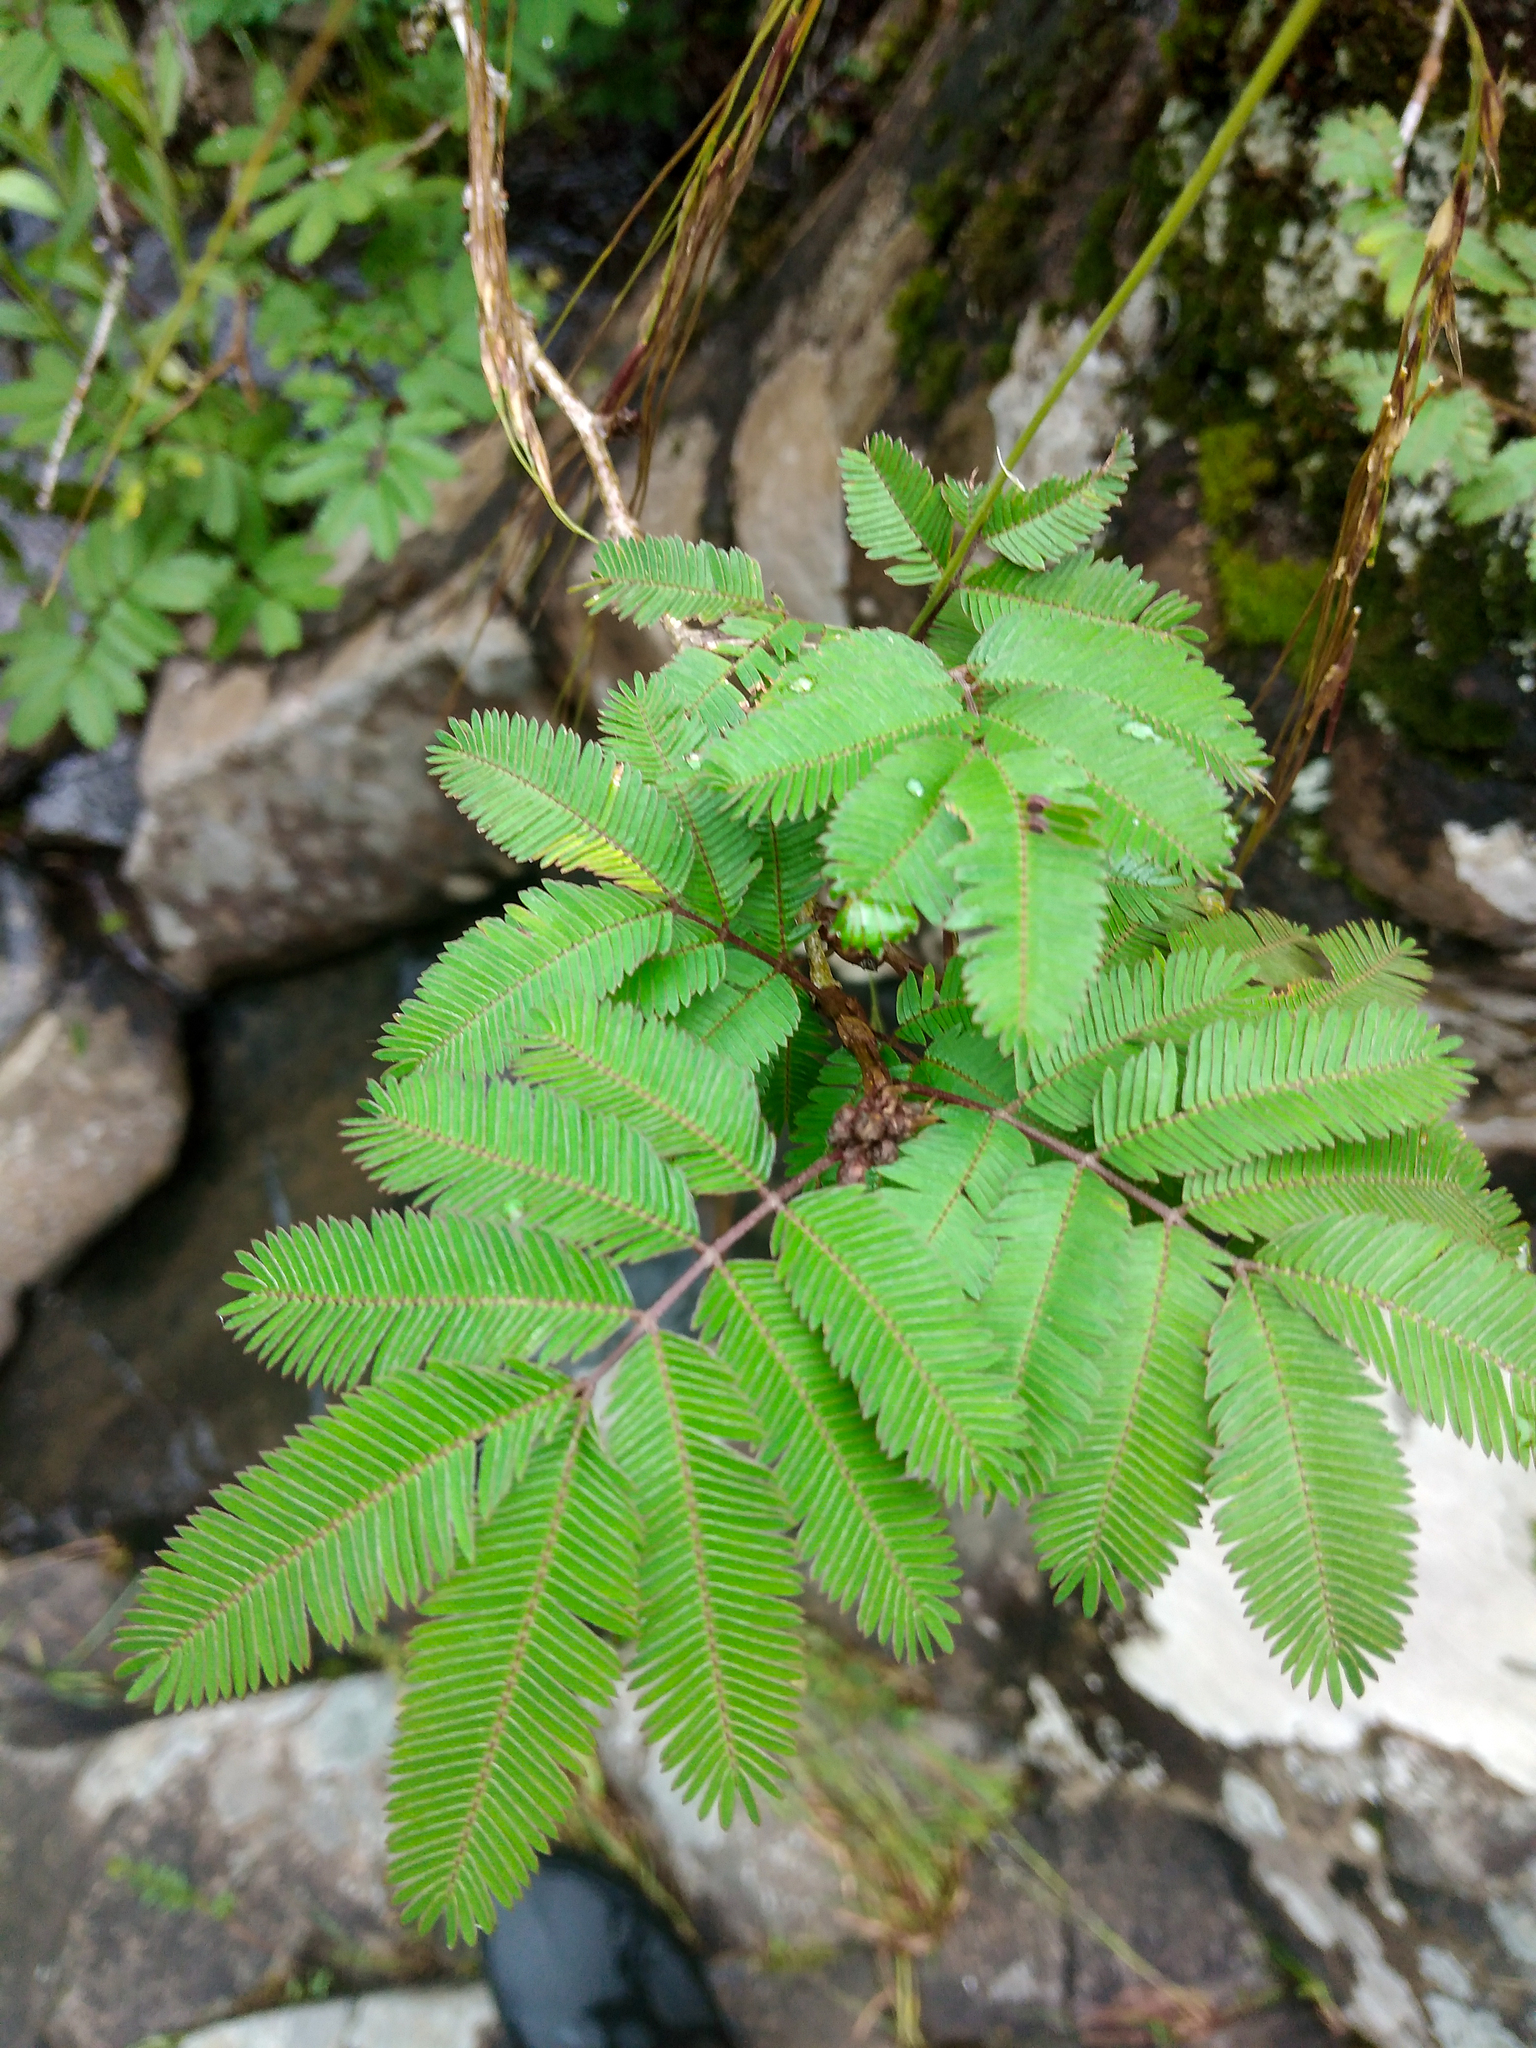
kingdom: Plantae
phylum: Tracheophyta
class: Magnoliopsida
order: Fabales
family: Fabaceae
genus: Calliandra
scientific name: Calliandra tweediei
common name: Mexican flamebush
